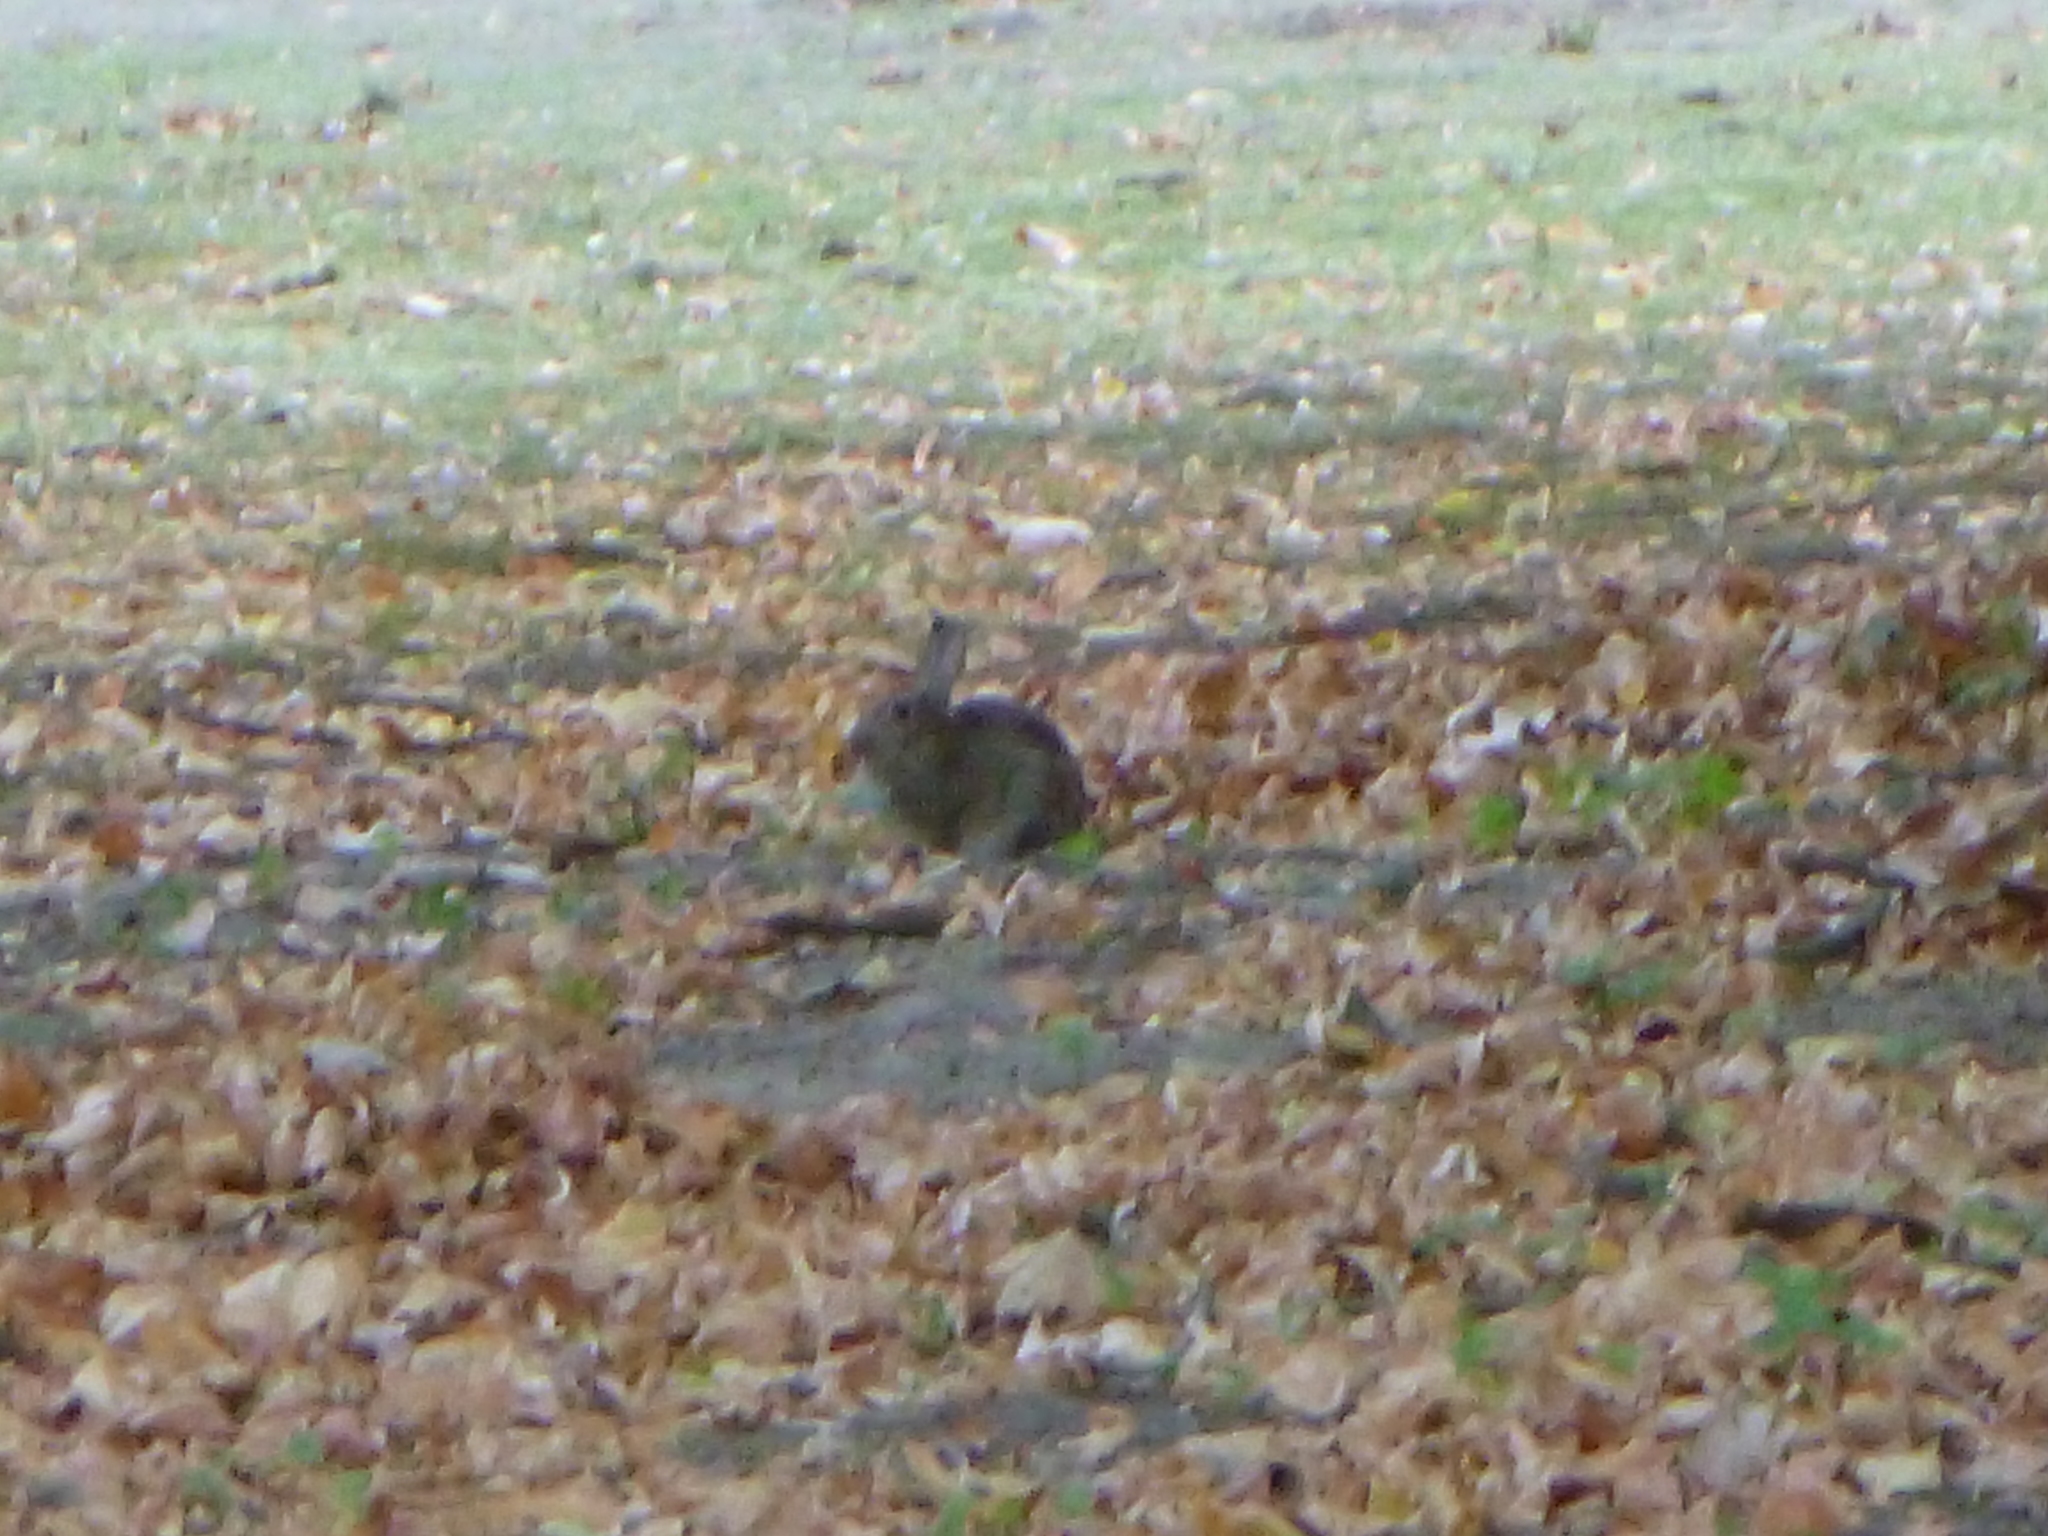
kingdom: Animalia
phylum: Chordata
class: Mammalia
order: Lagomorpha
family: Leporidae
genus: Oryctolagus
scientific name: Oryctolagus cuniculus
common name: European rabbit
